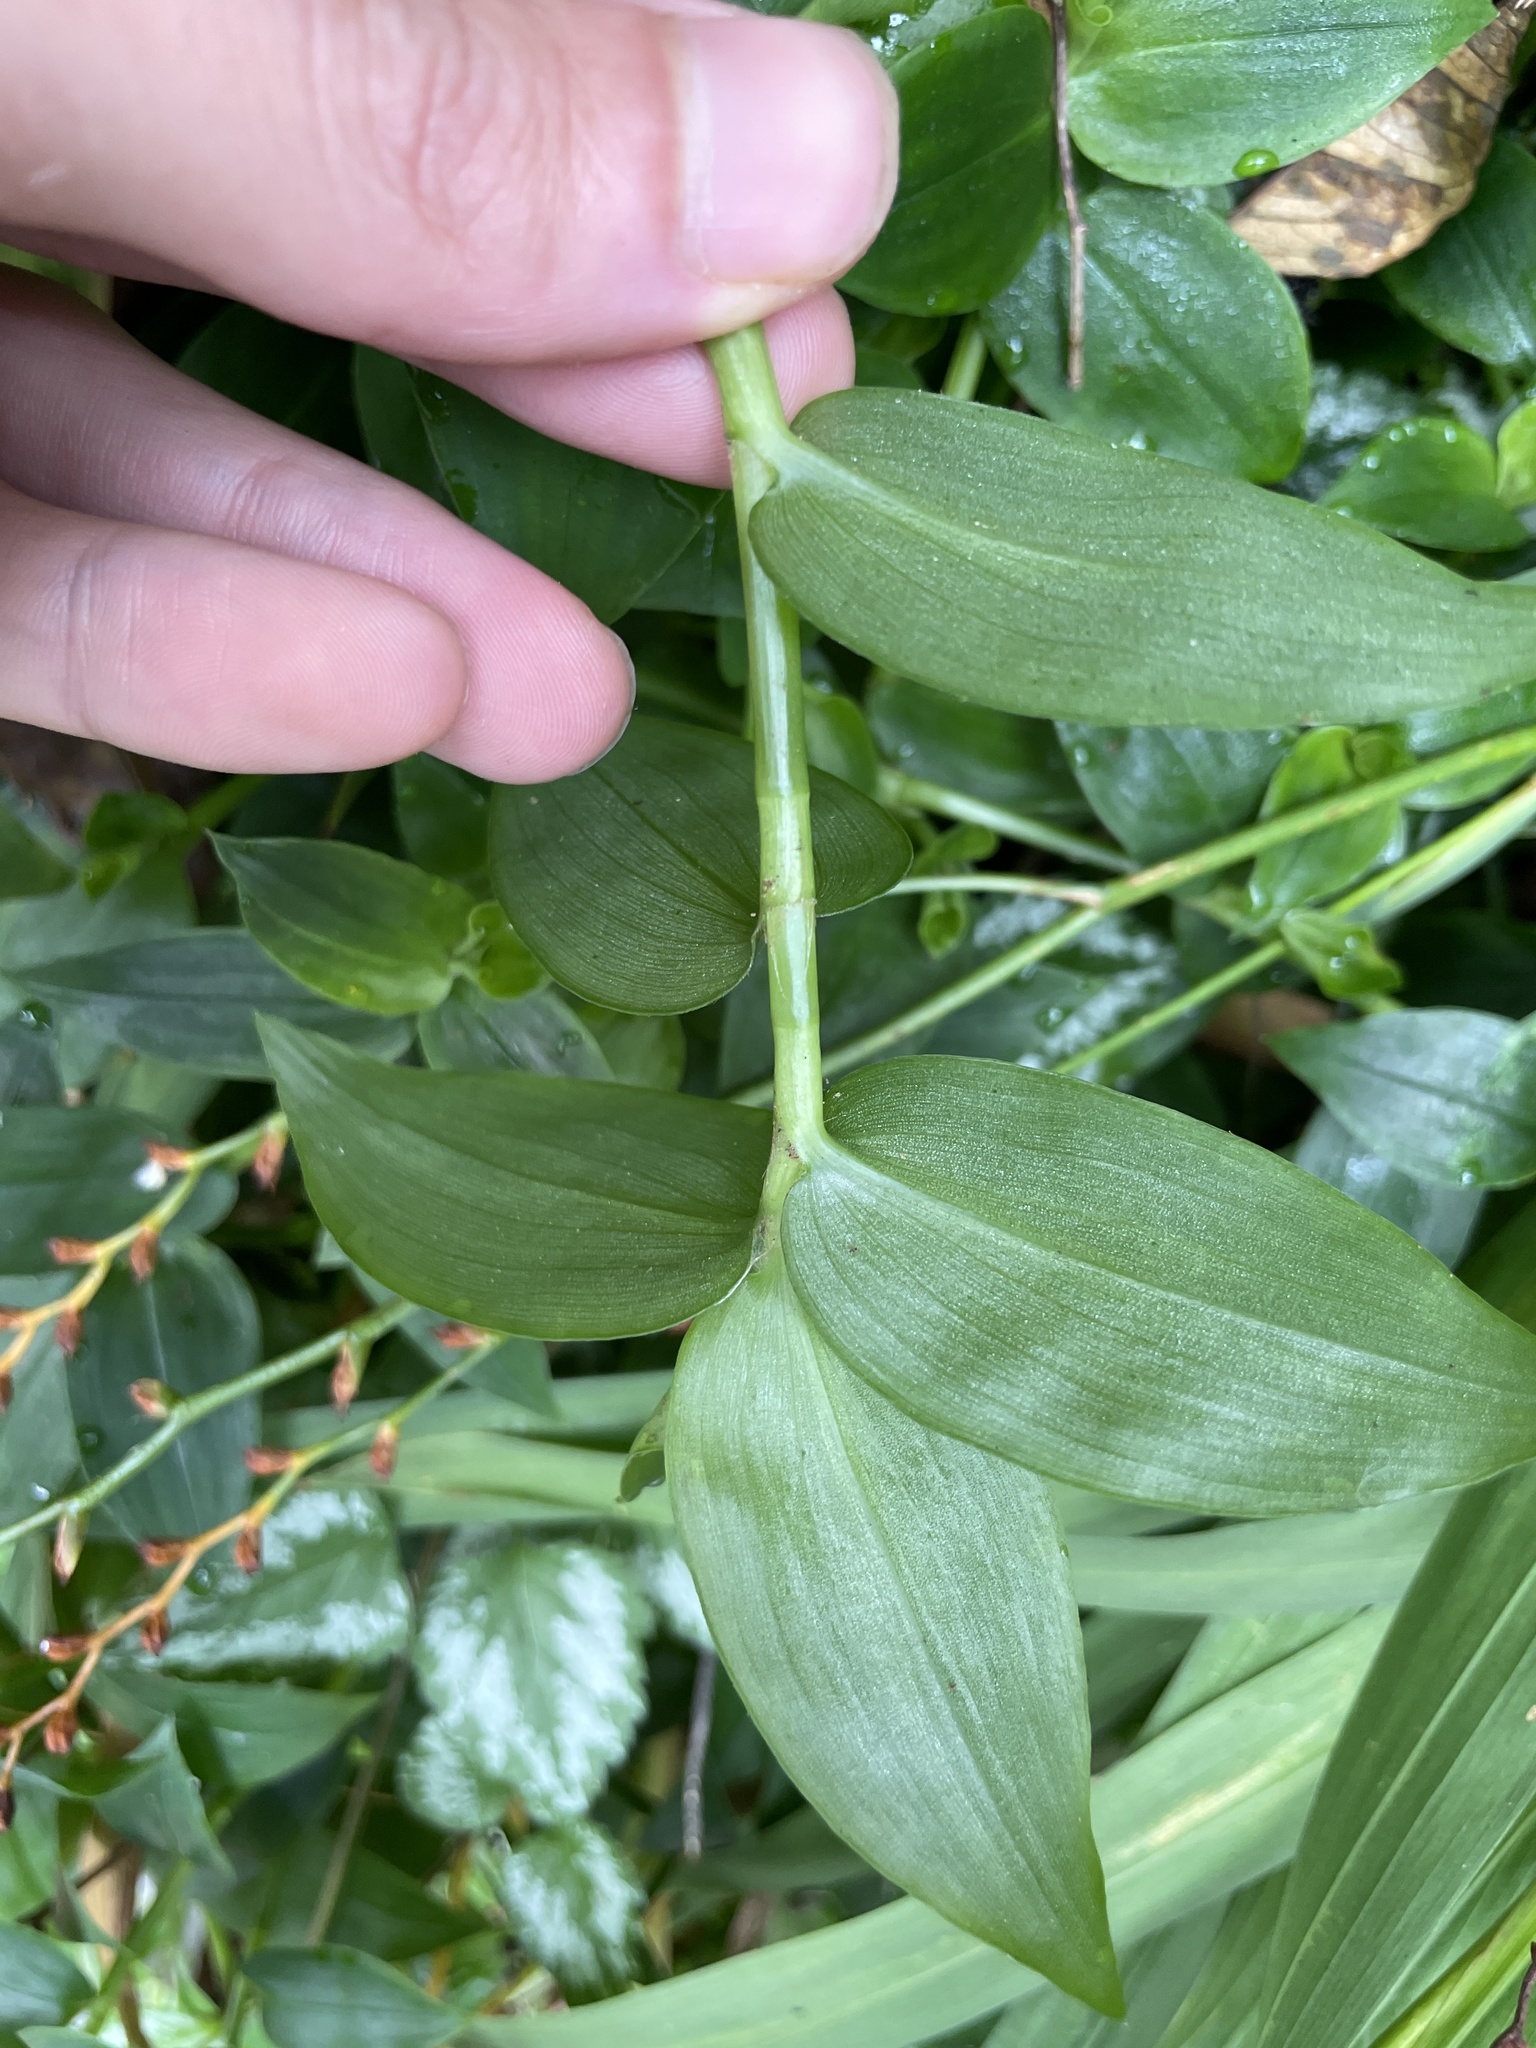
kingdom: Plantae
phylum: Tracheophyta
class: Liliopsida
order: Commelinales
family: Commelinaceae
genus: Tradescantia
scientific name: Tradescantia fluminensis
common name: Wandering-jew
